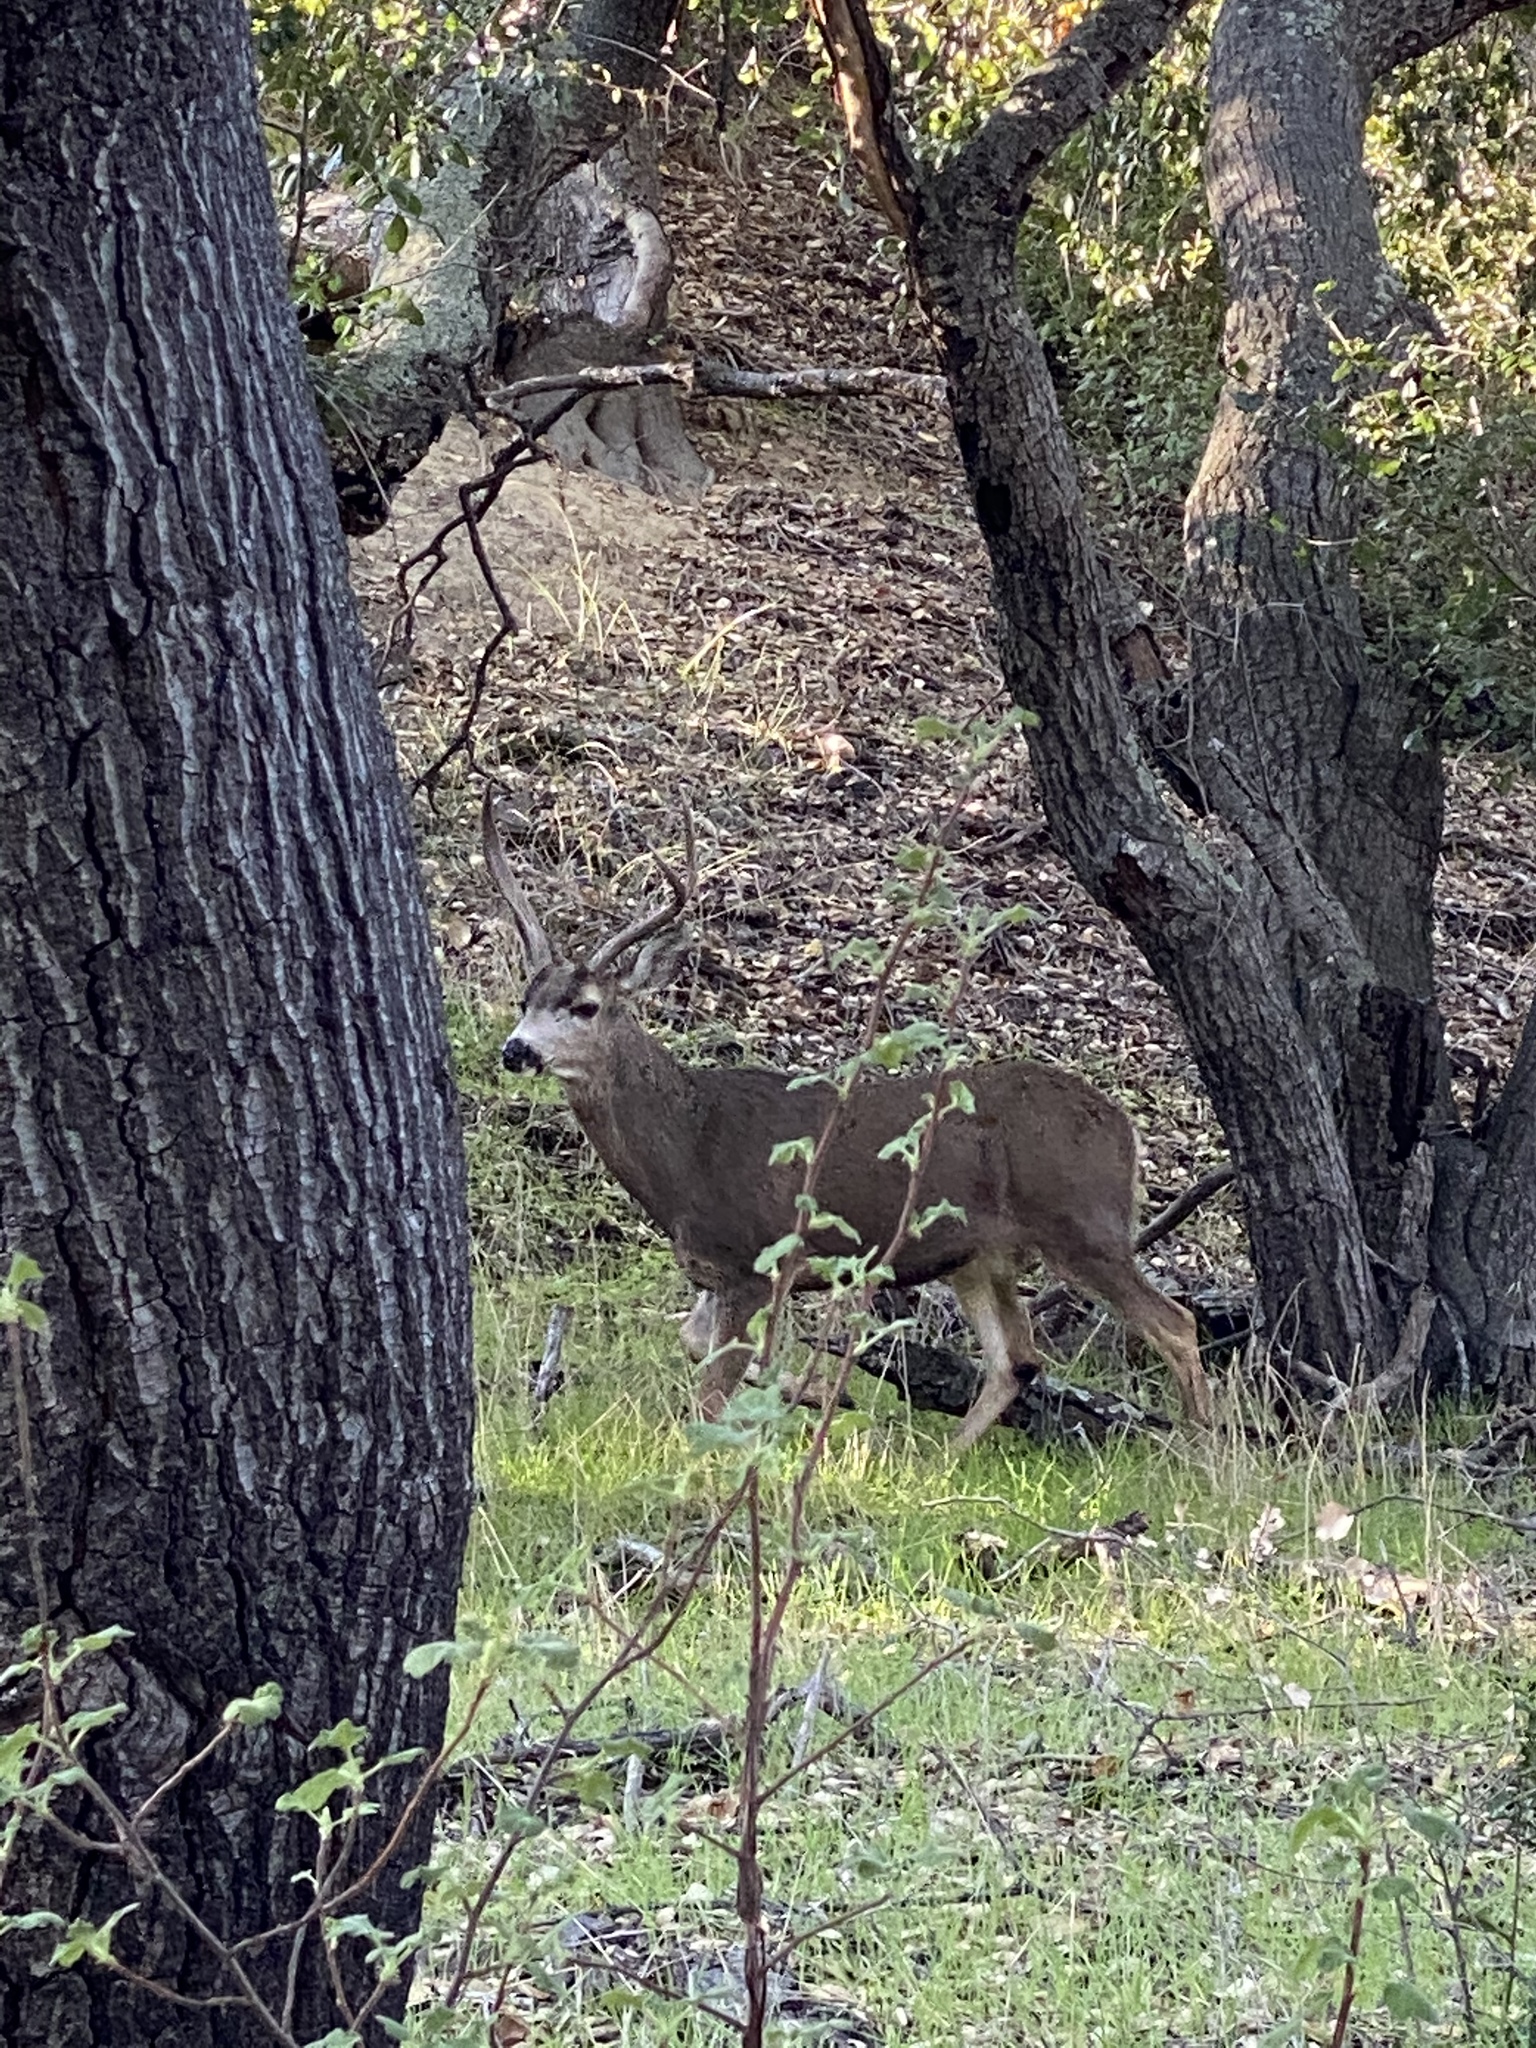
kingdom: Animalia
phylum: Chordata
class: Mammalia
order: Artiodactyla
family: Cervidae
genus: Odocoileus
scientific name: Odocoileus hemionus
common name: Mule deer
